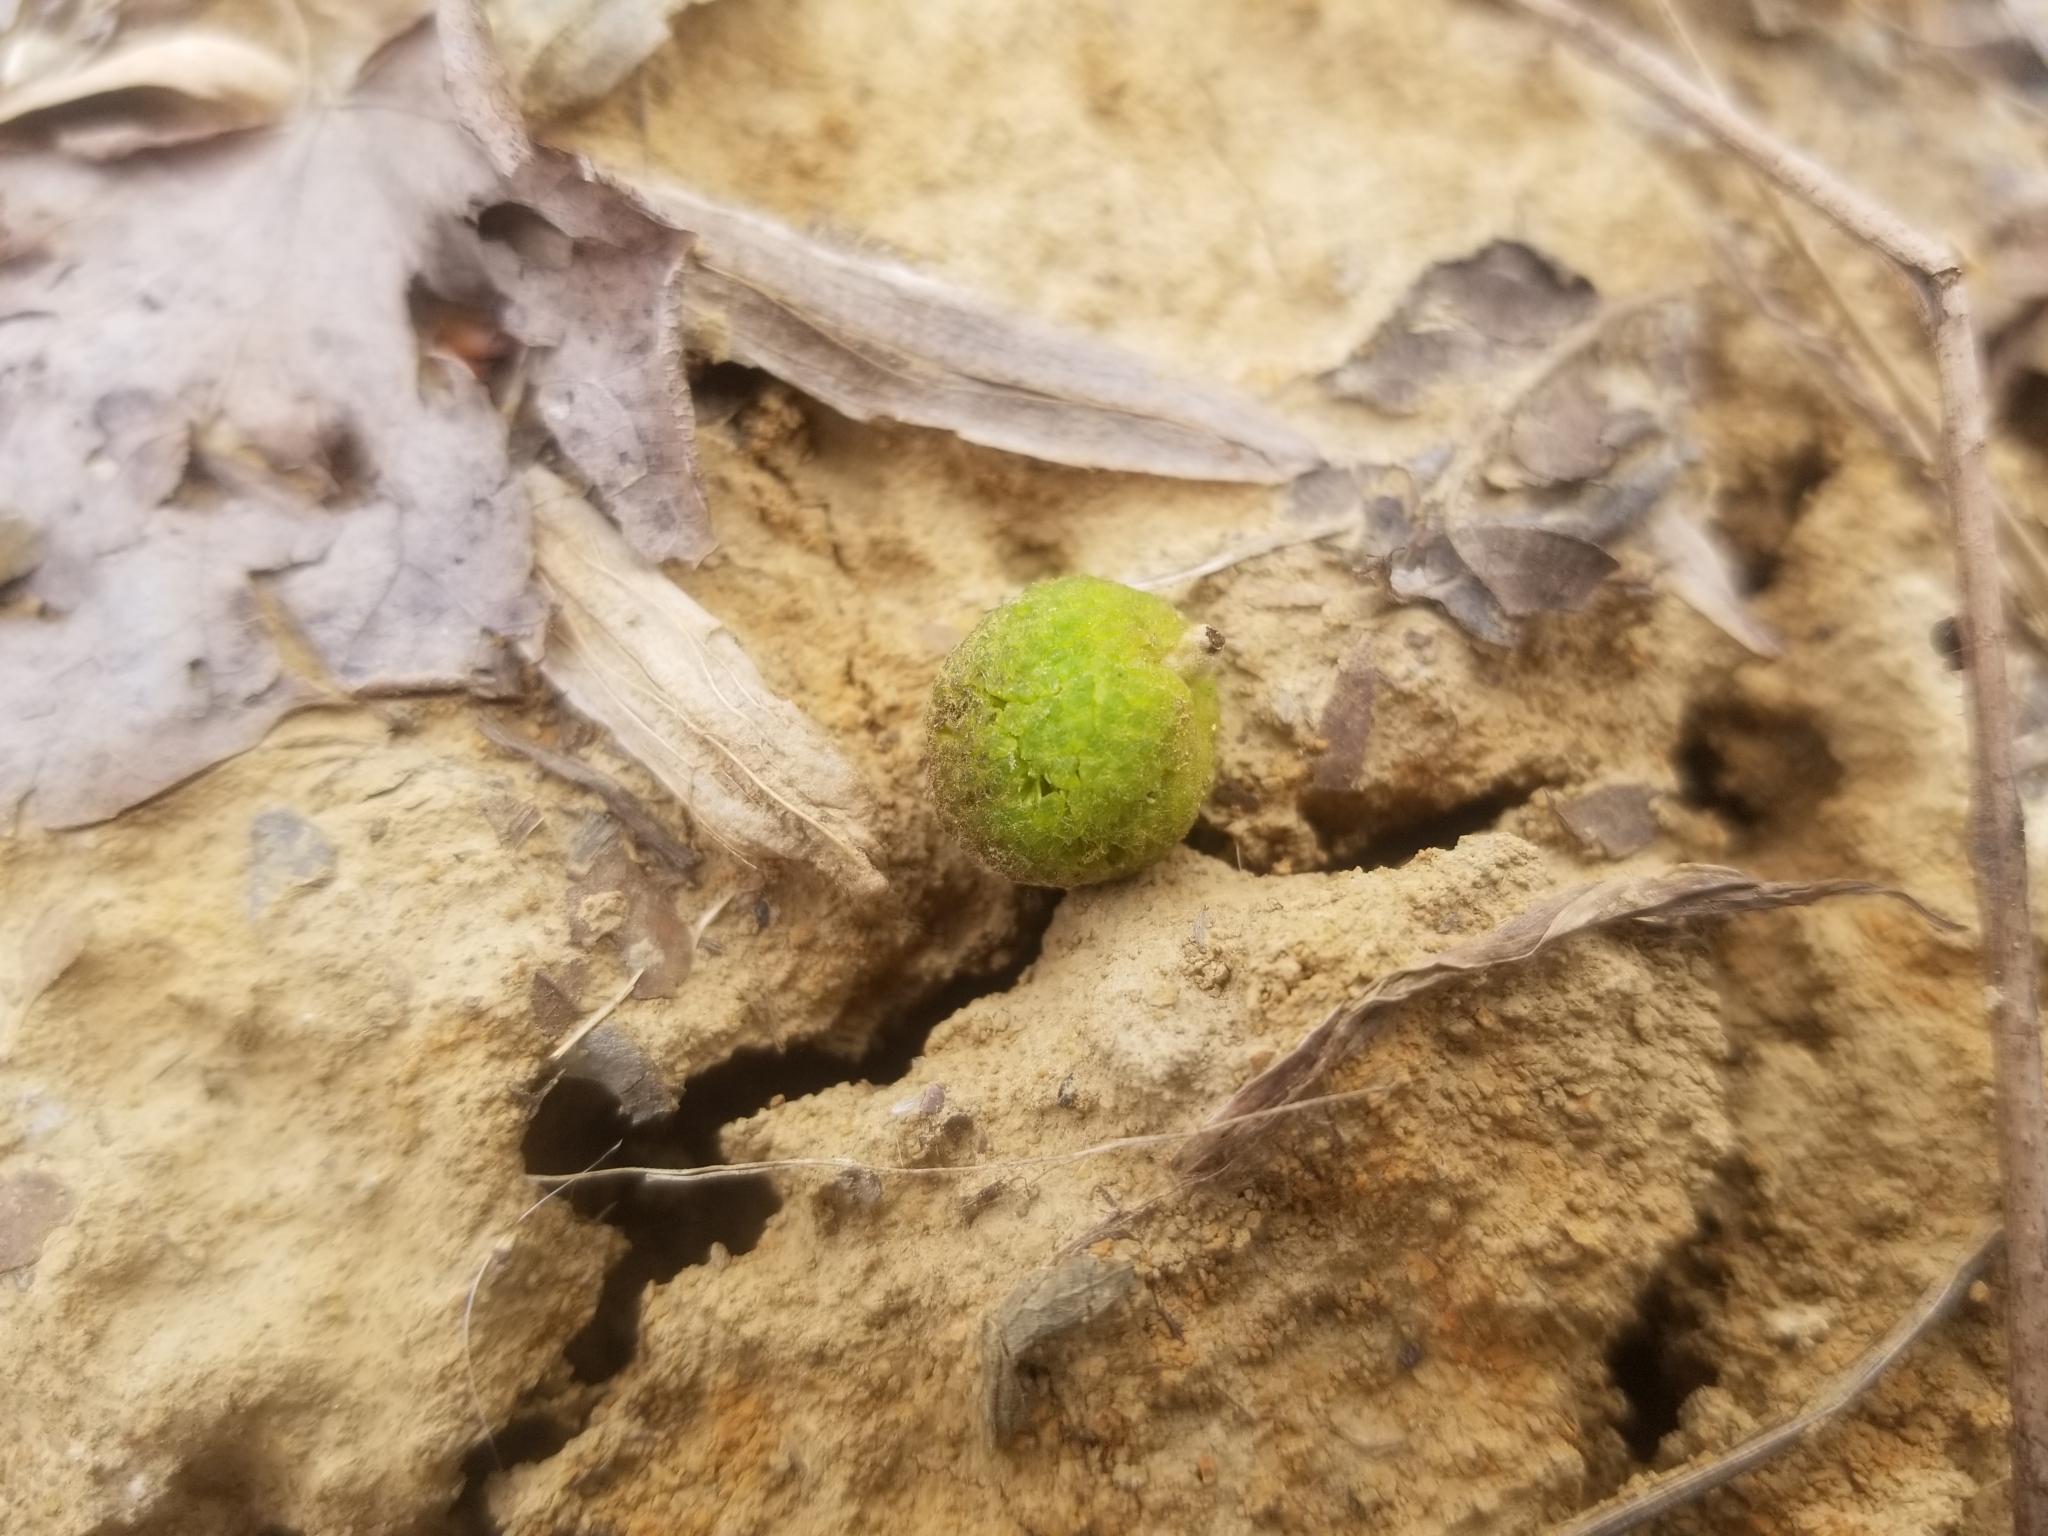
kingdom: Plantae
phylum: Tracheophyta
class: Magnoliopsida
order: Saxifragales
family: Altingiaceae
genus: Liquidambar
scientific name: Liquidambar styraciflua
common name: Sweet gum
